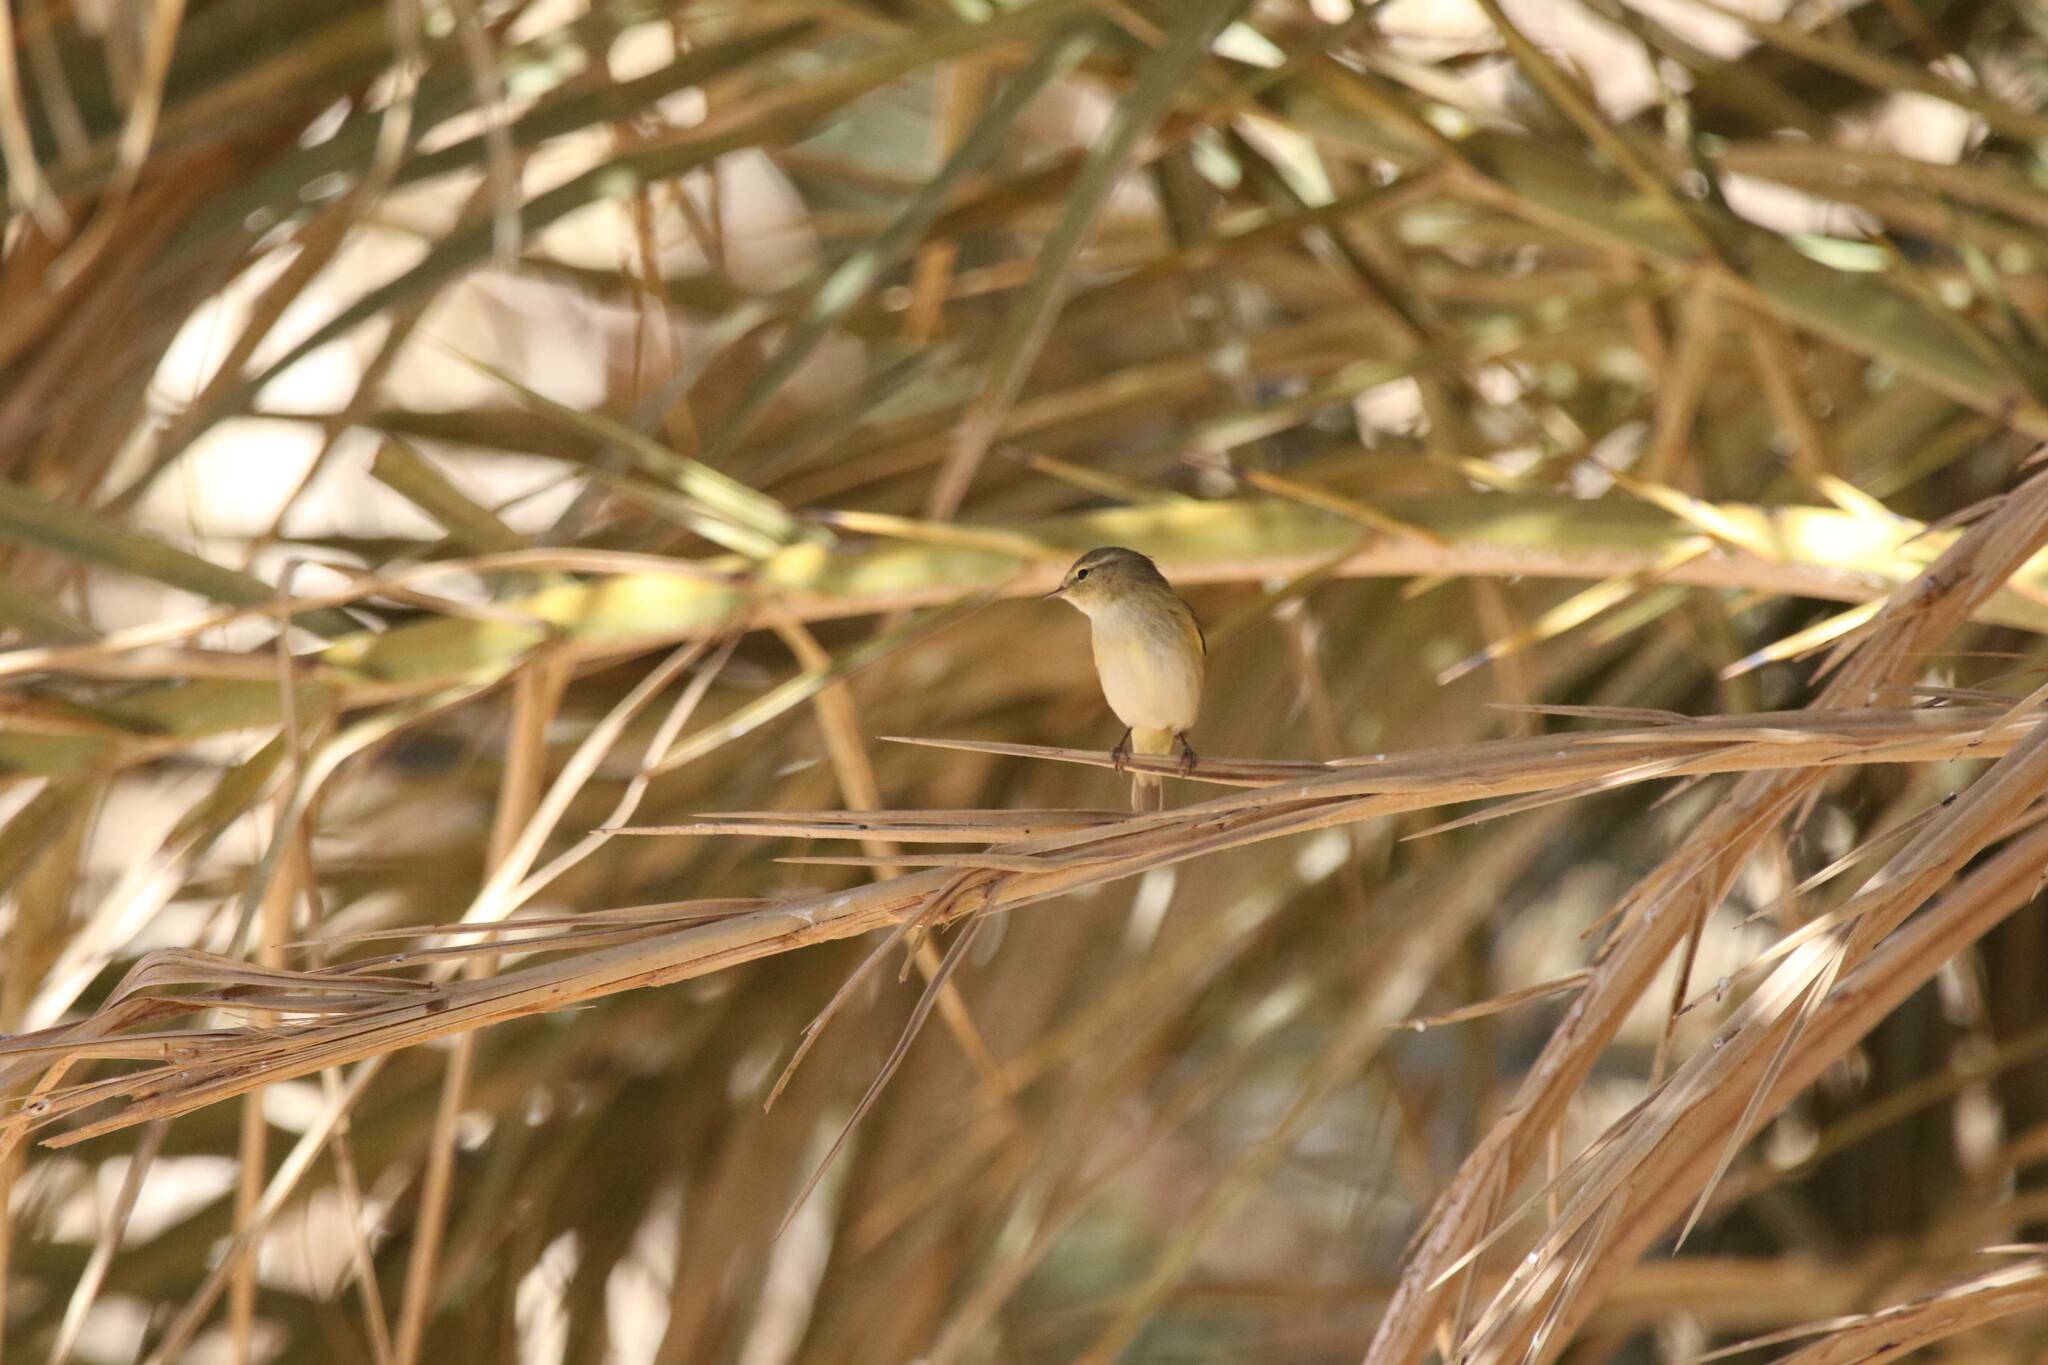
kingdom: Animalia
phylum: Chordata
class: Aves
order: Passeriformes
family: Phylloscopidae
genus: Phylloscopus
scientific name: Phylloscopus collybita
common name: Common chiffchaff
